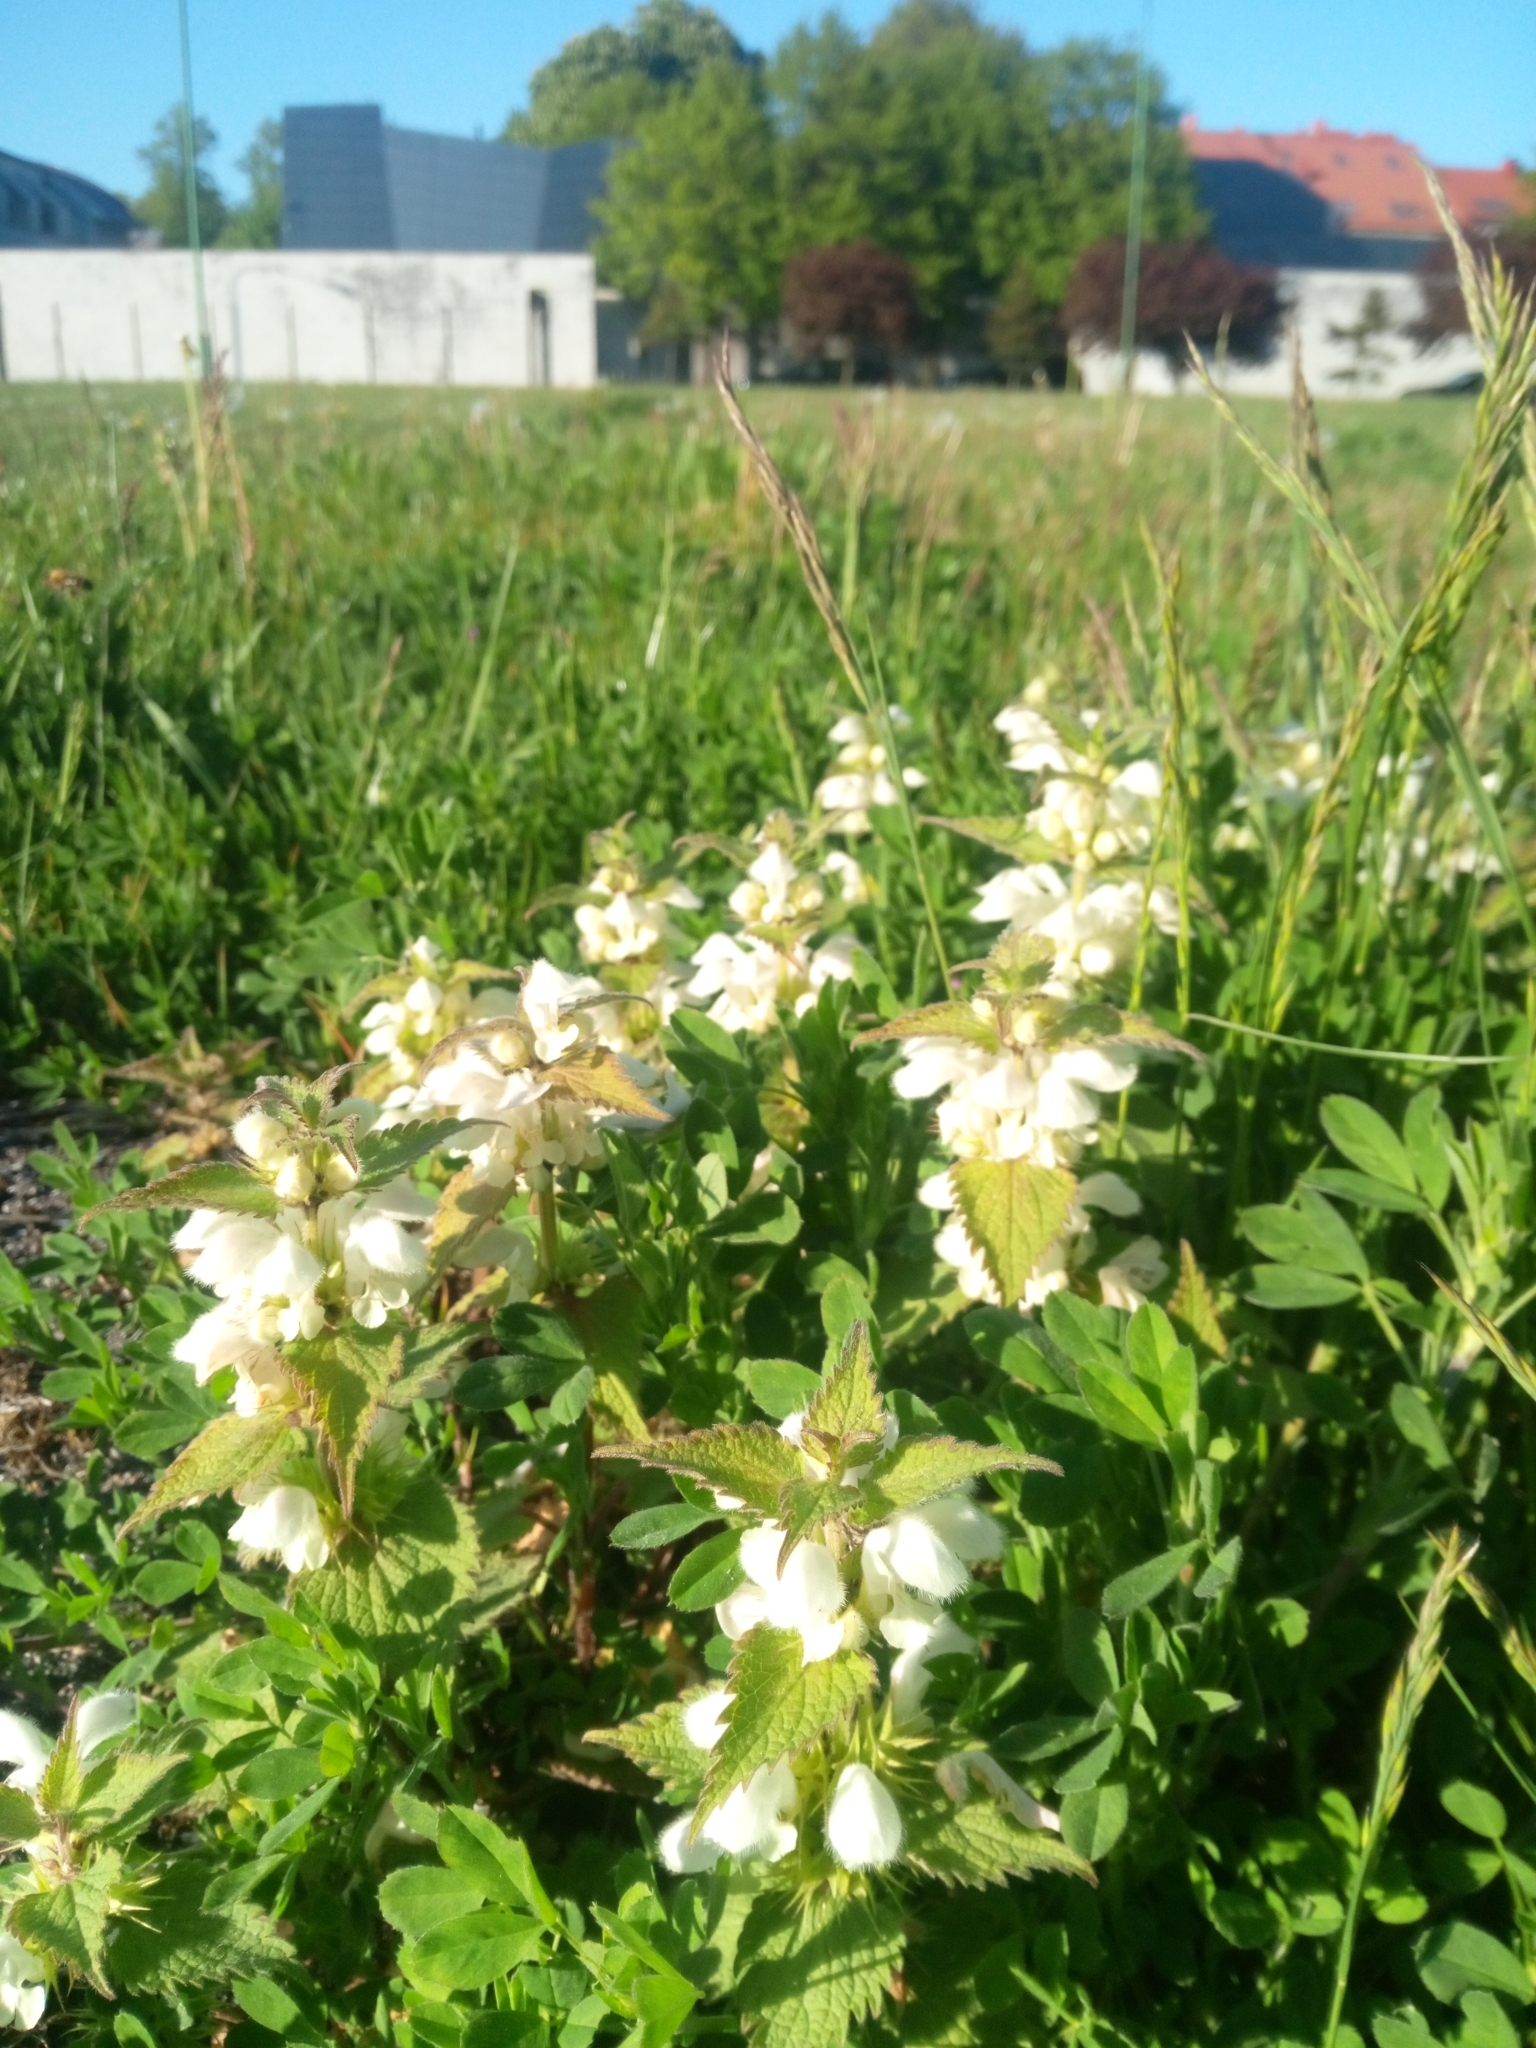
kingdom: Plantae
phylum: Tracheophyta
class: Magnoliopsida
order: Lamiales
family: Lamiaceae
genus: Lamium
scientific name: Lamium album
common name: White dead-nettle
